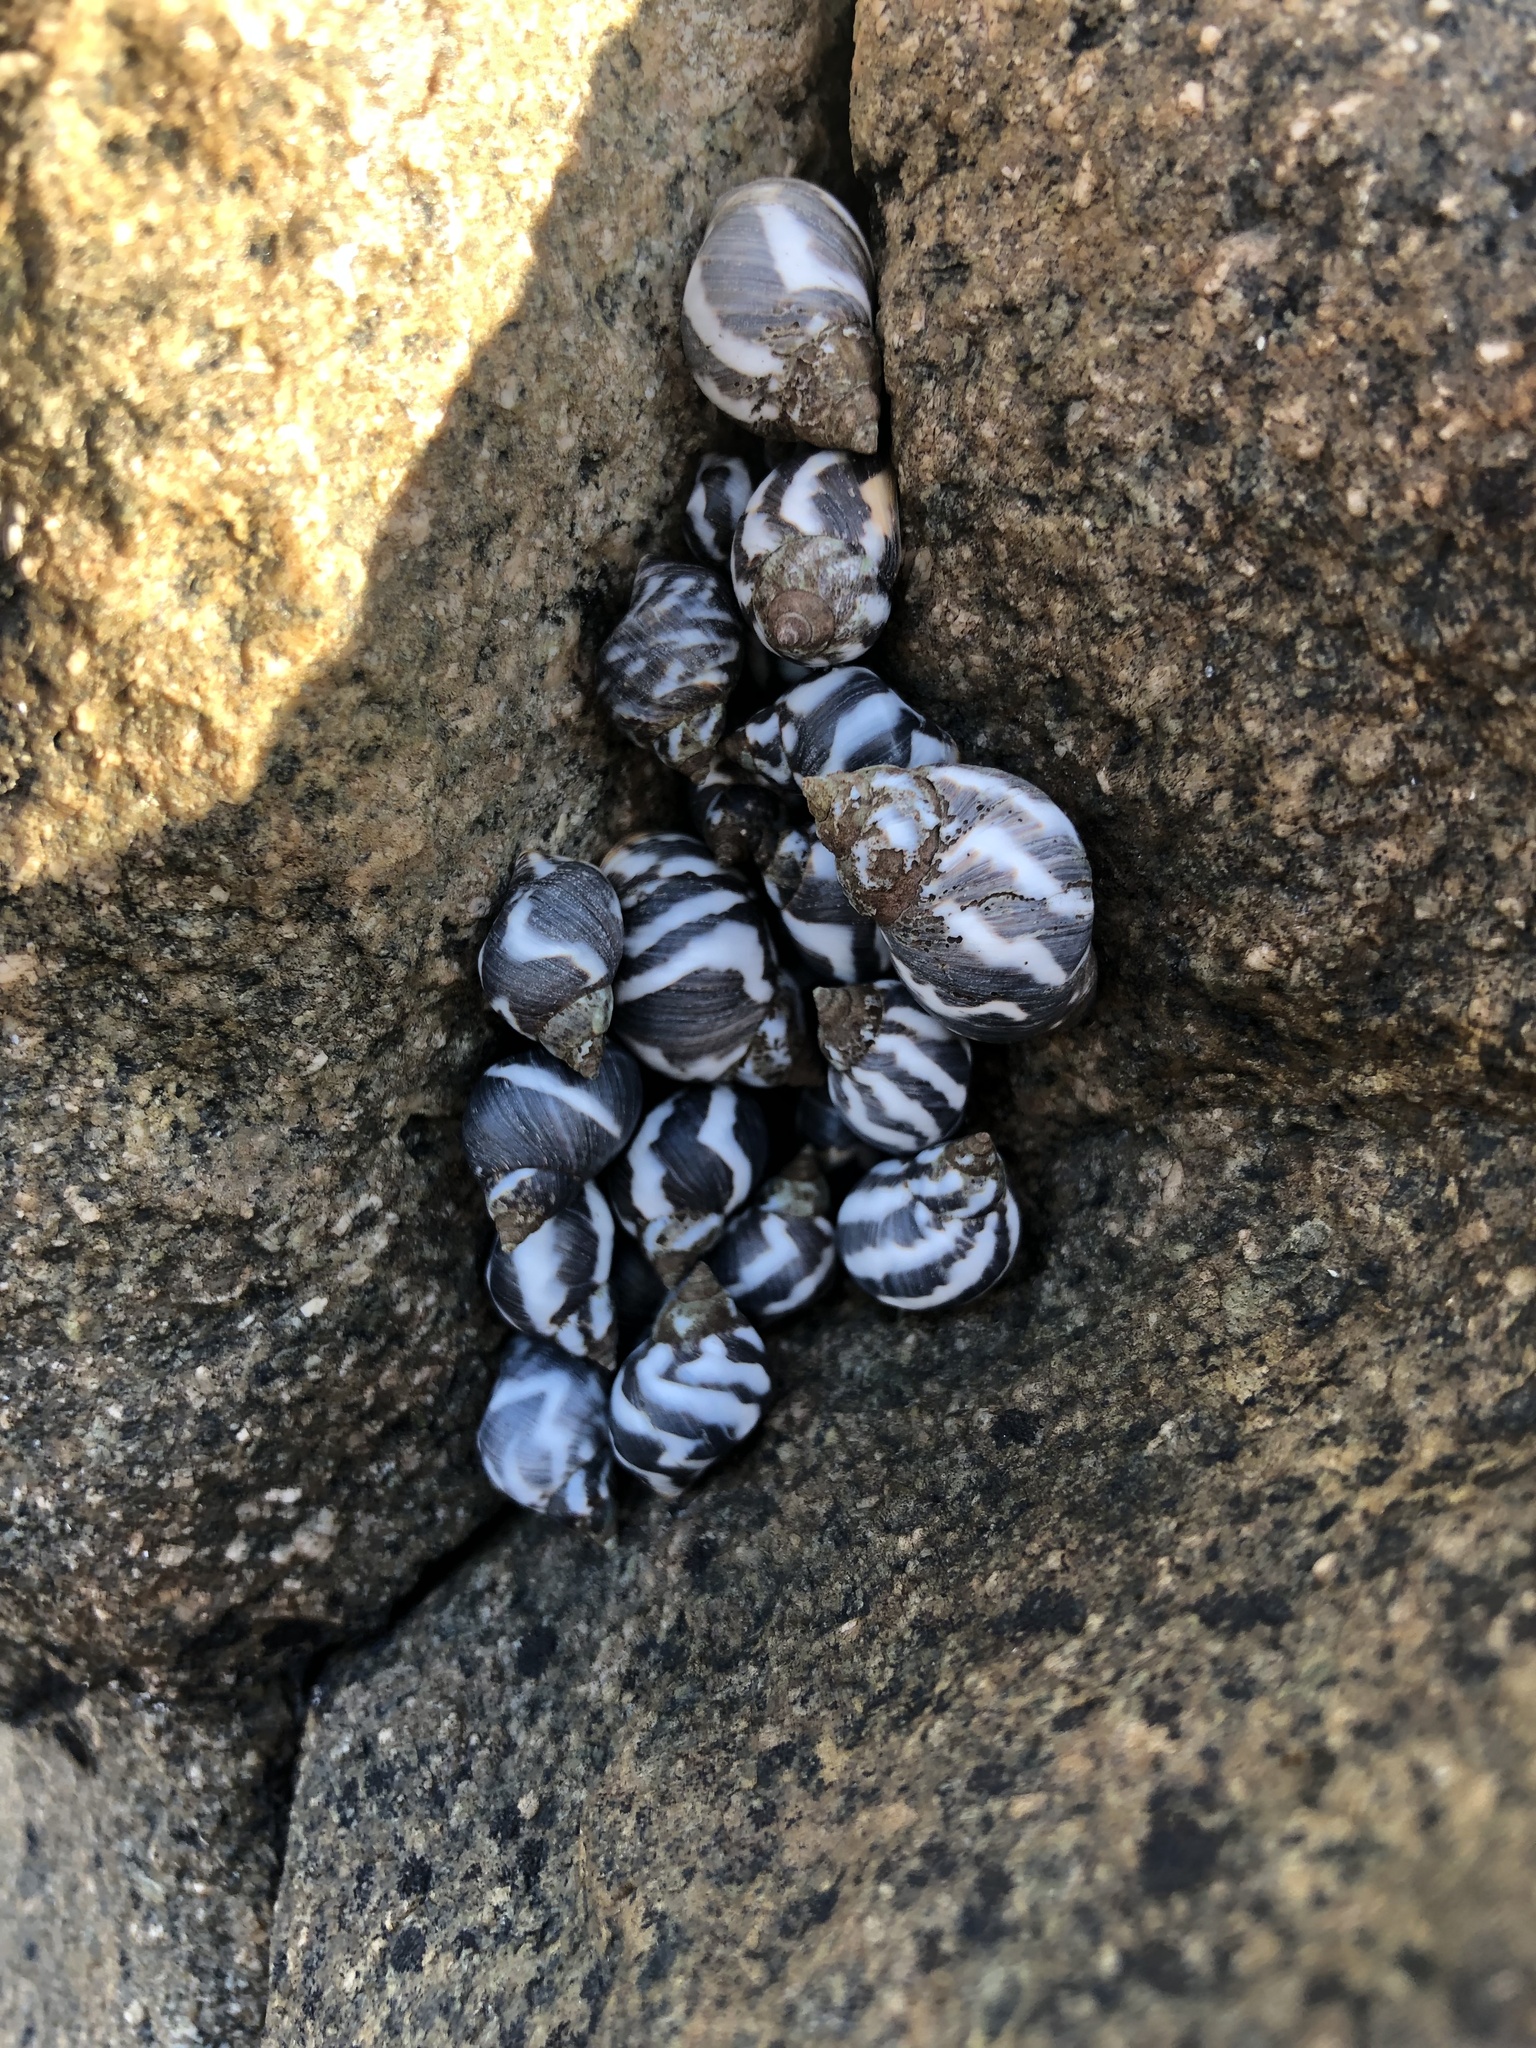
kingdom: Animalia
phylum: Mollusca
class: Gastropoda
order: Littorinimorpha
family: Littorinidae
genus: Echinolittorina
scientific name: Echinolittorina peruviana
